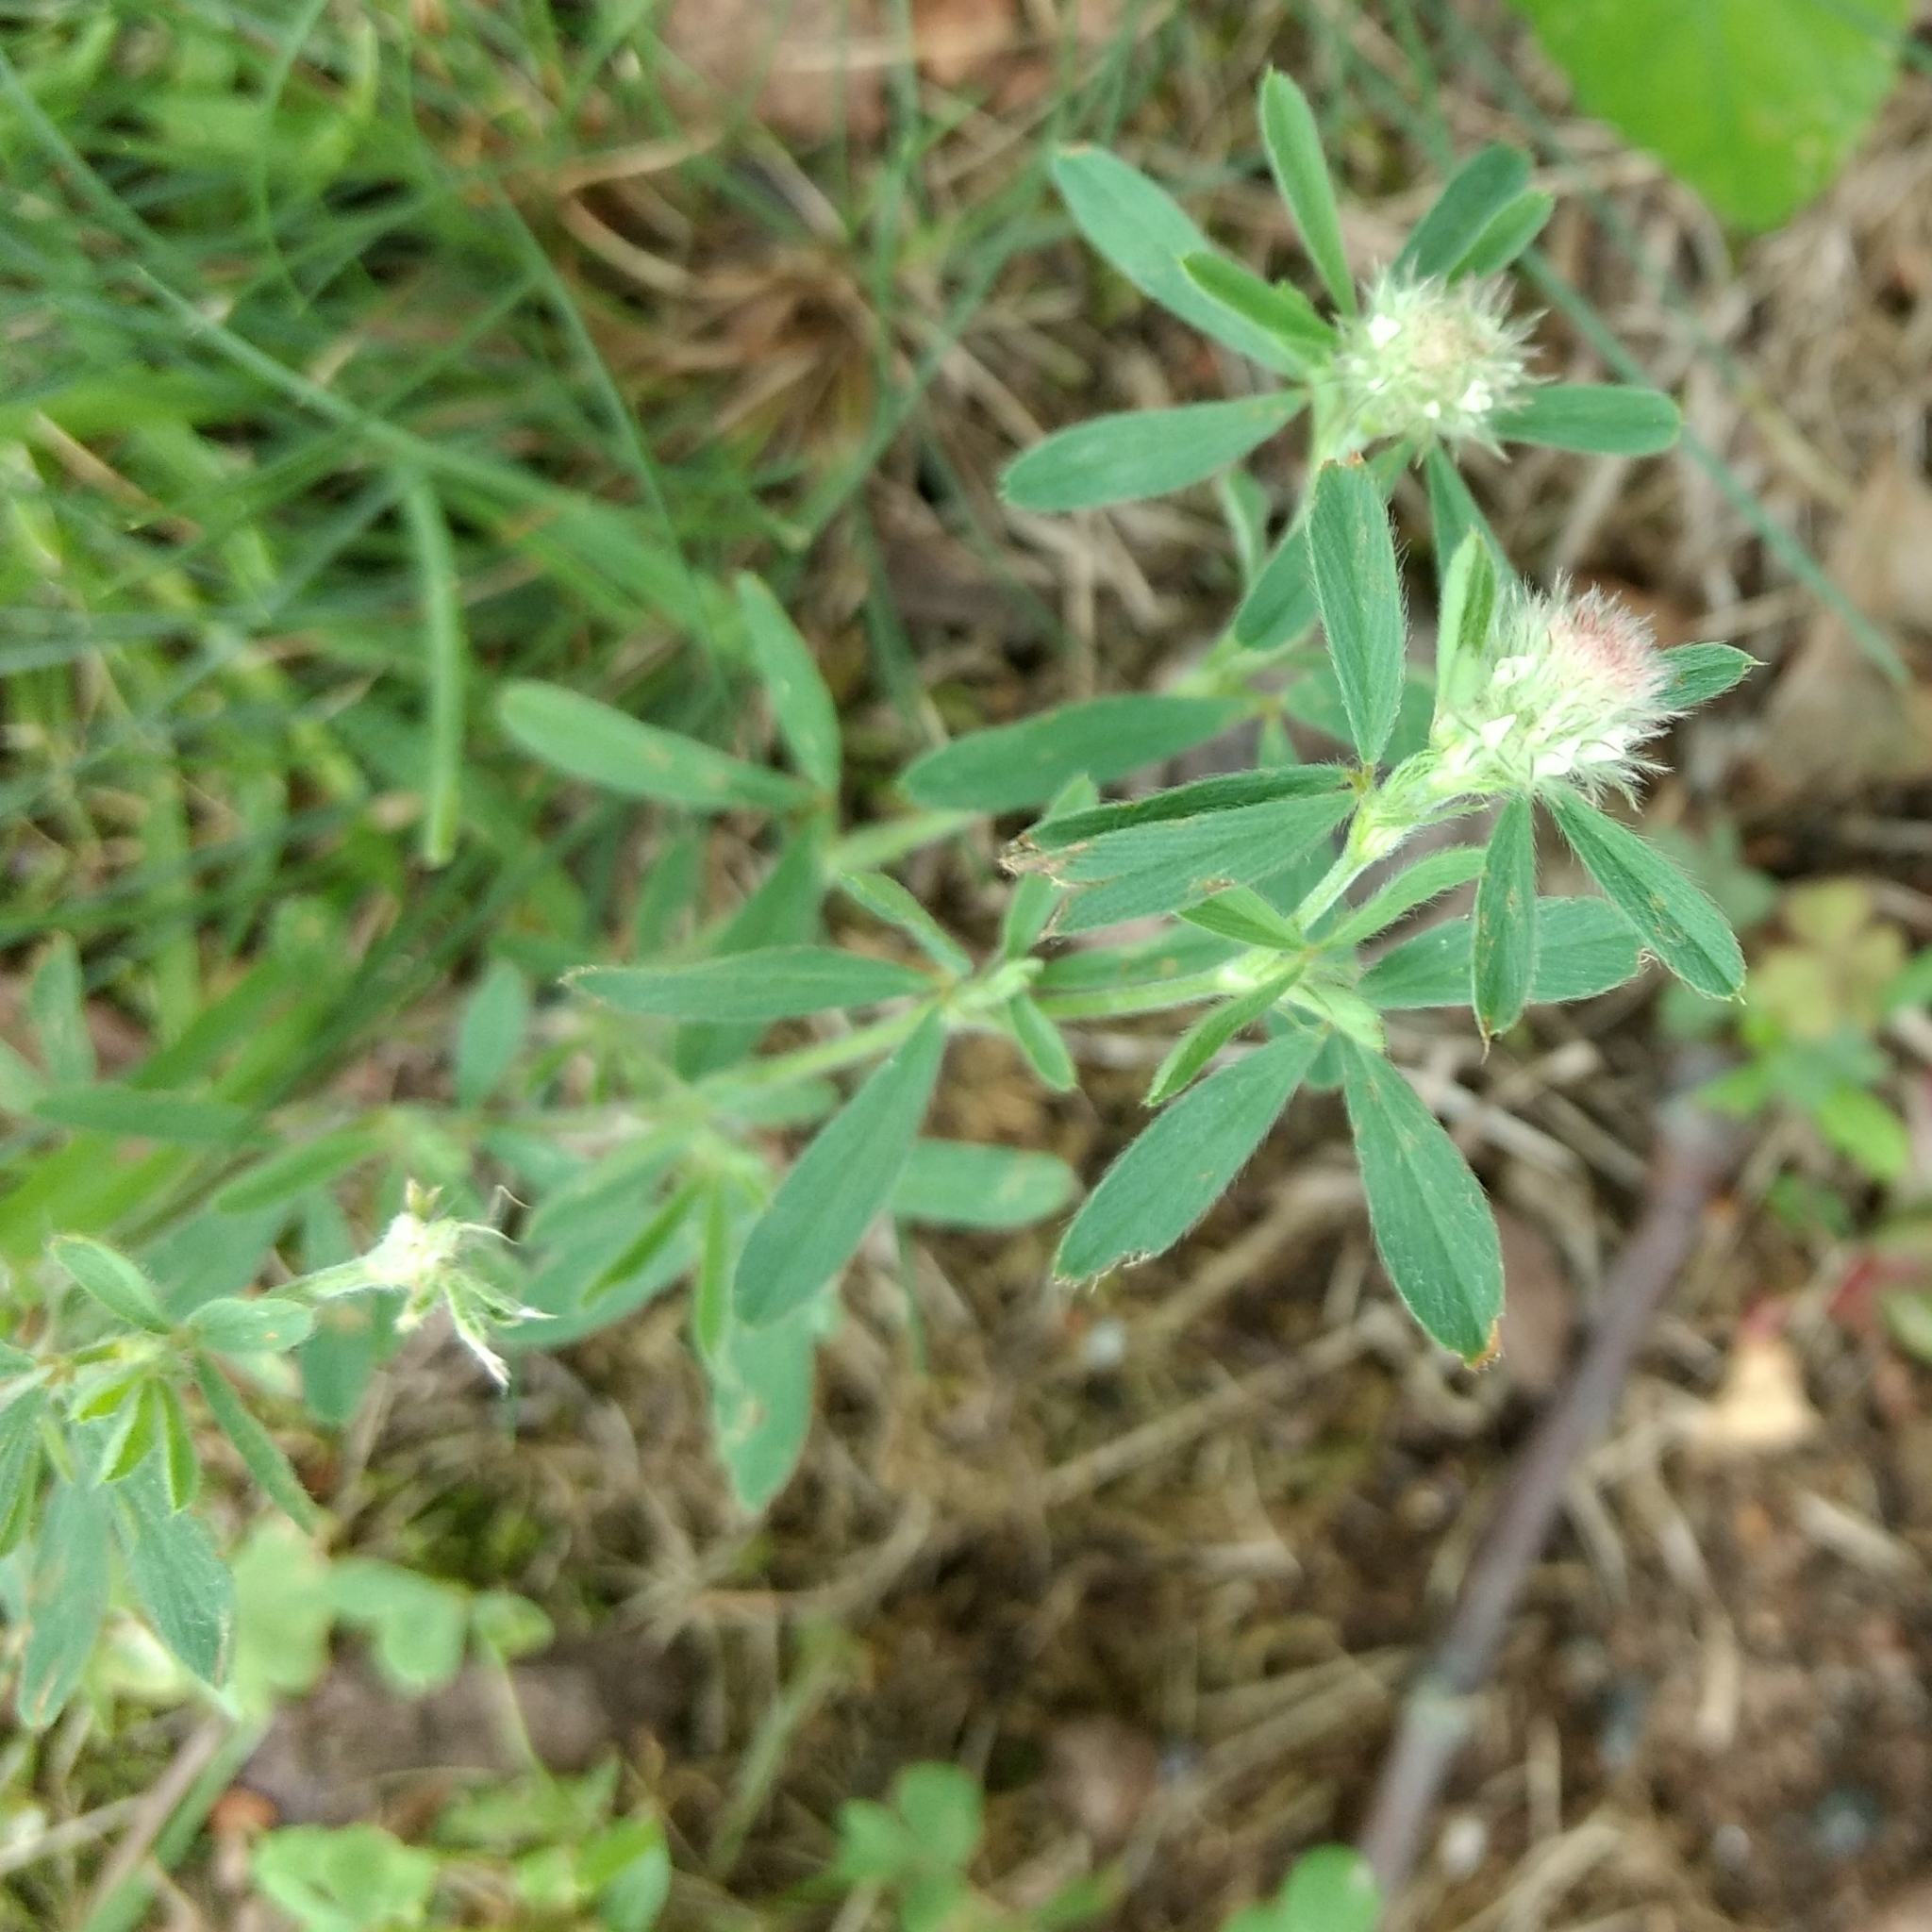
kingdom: Plantae
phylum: Tracheophyta
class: Magnoliopsida
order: Fabales
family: Fabaceae
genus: Trifolium
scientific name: Trifolium arvense
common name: Hare's-foot clover
